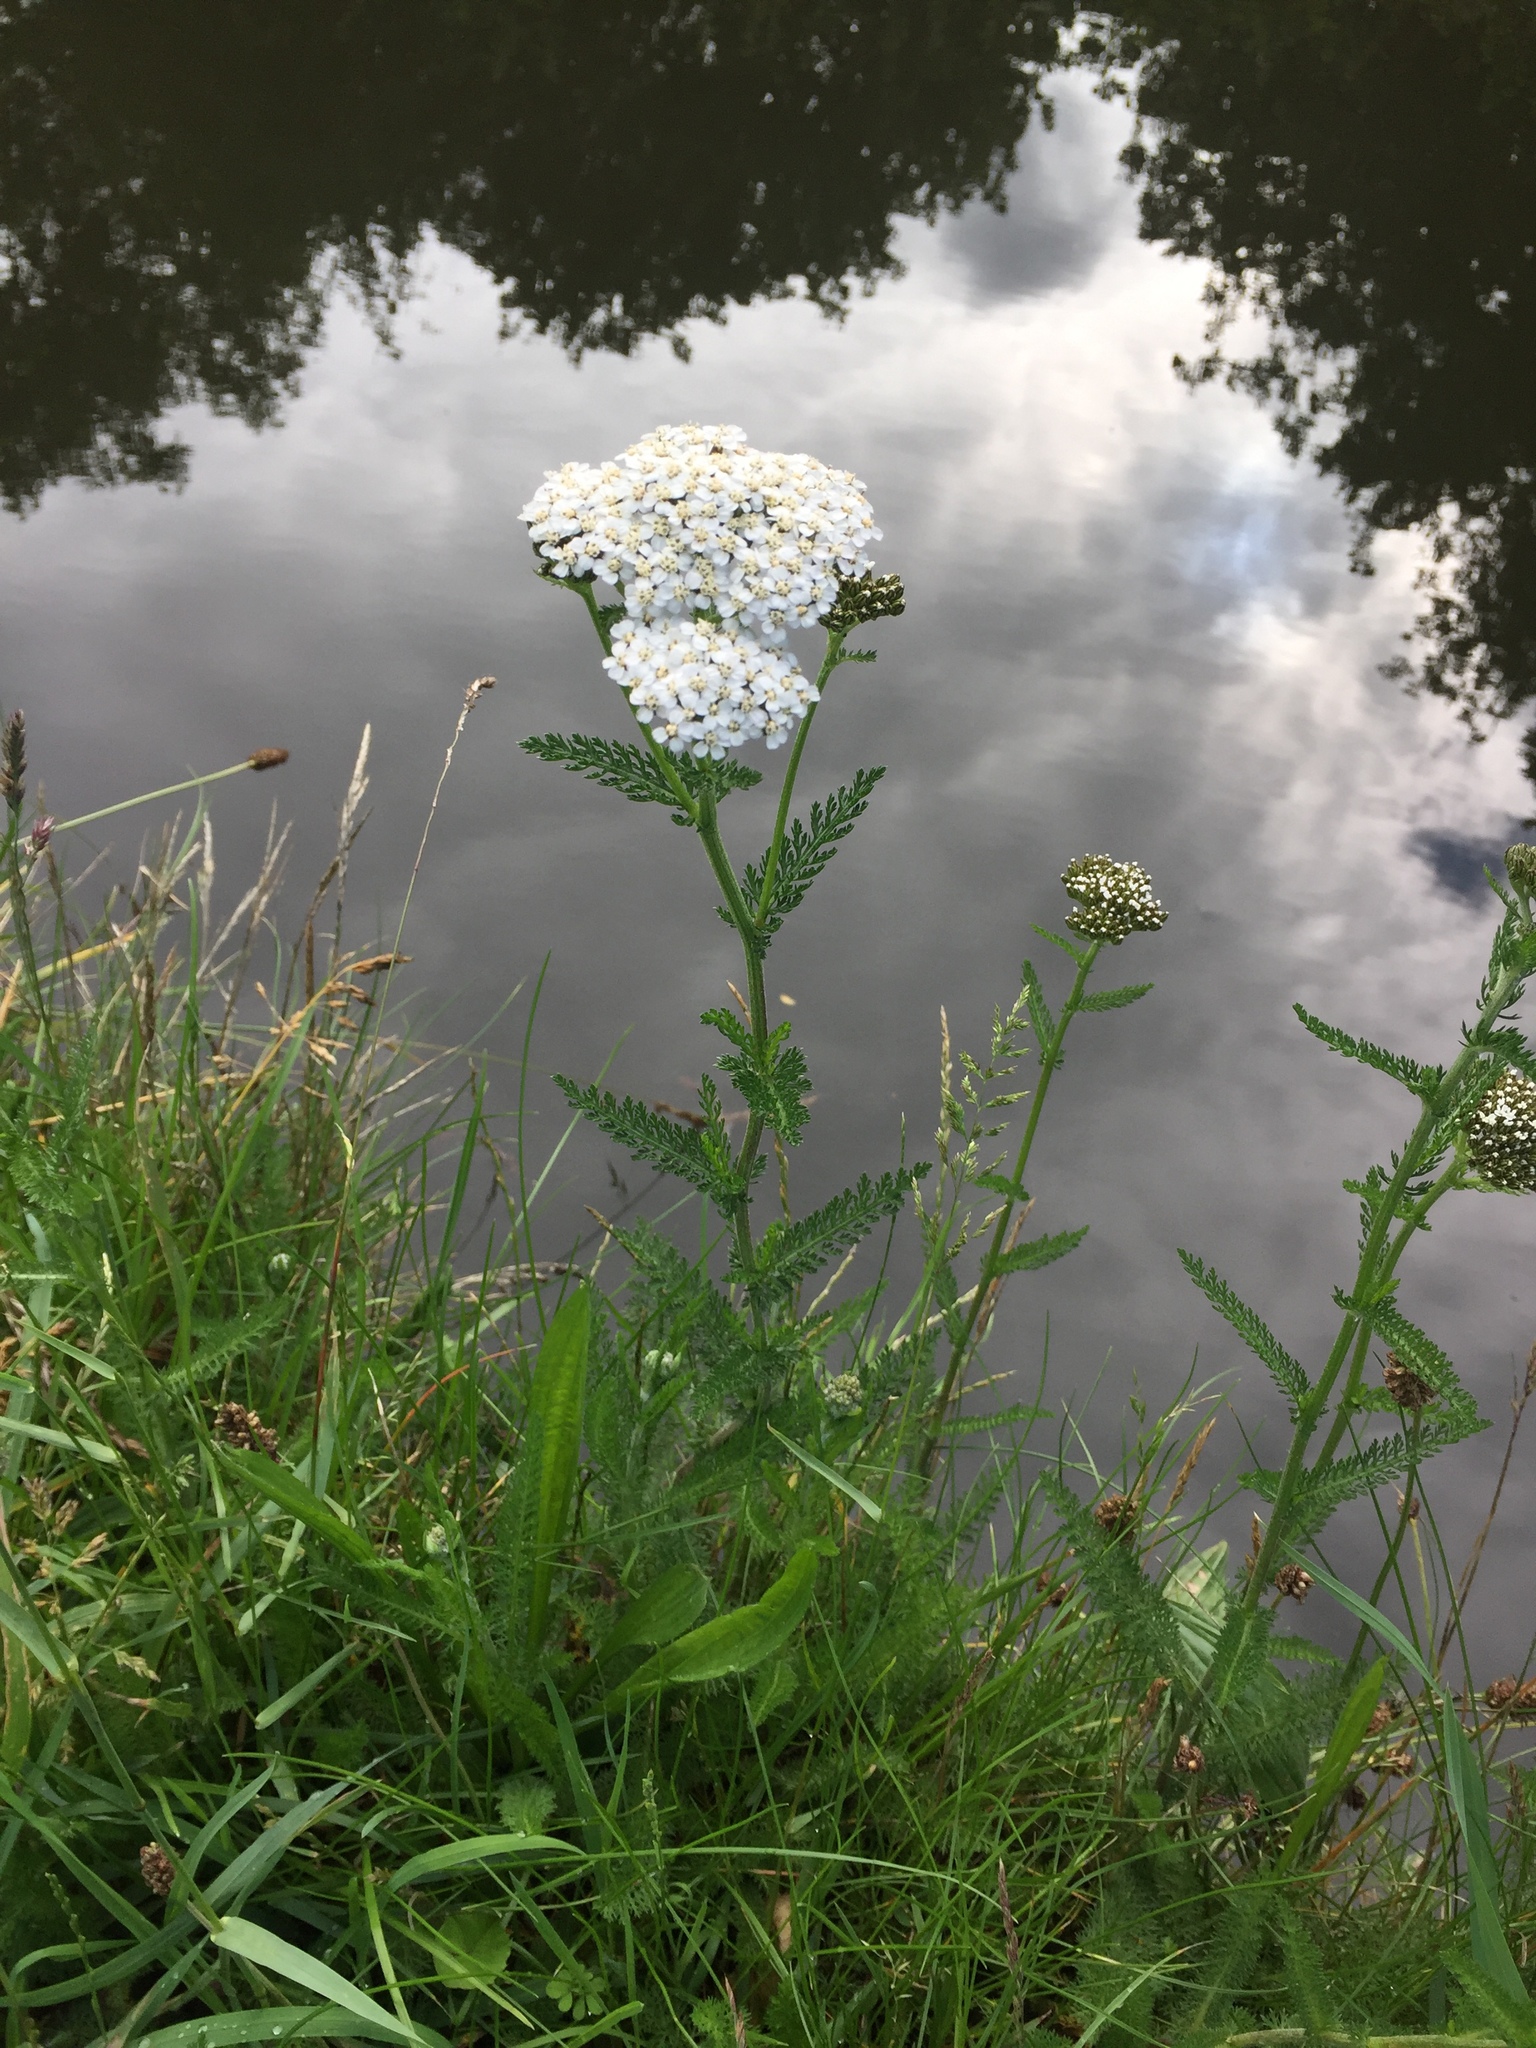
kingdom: Plantae
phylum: Tracheophyta
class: Magnoliopsida
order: Asterales
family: Asteraceae
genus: Achillea
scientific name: Achillea millefolium
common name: Yarrow
